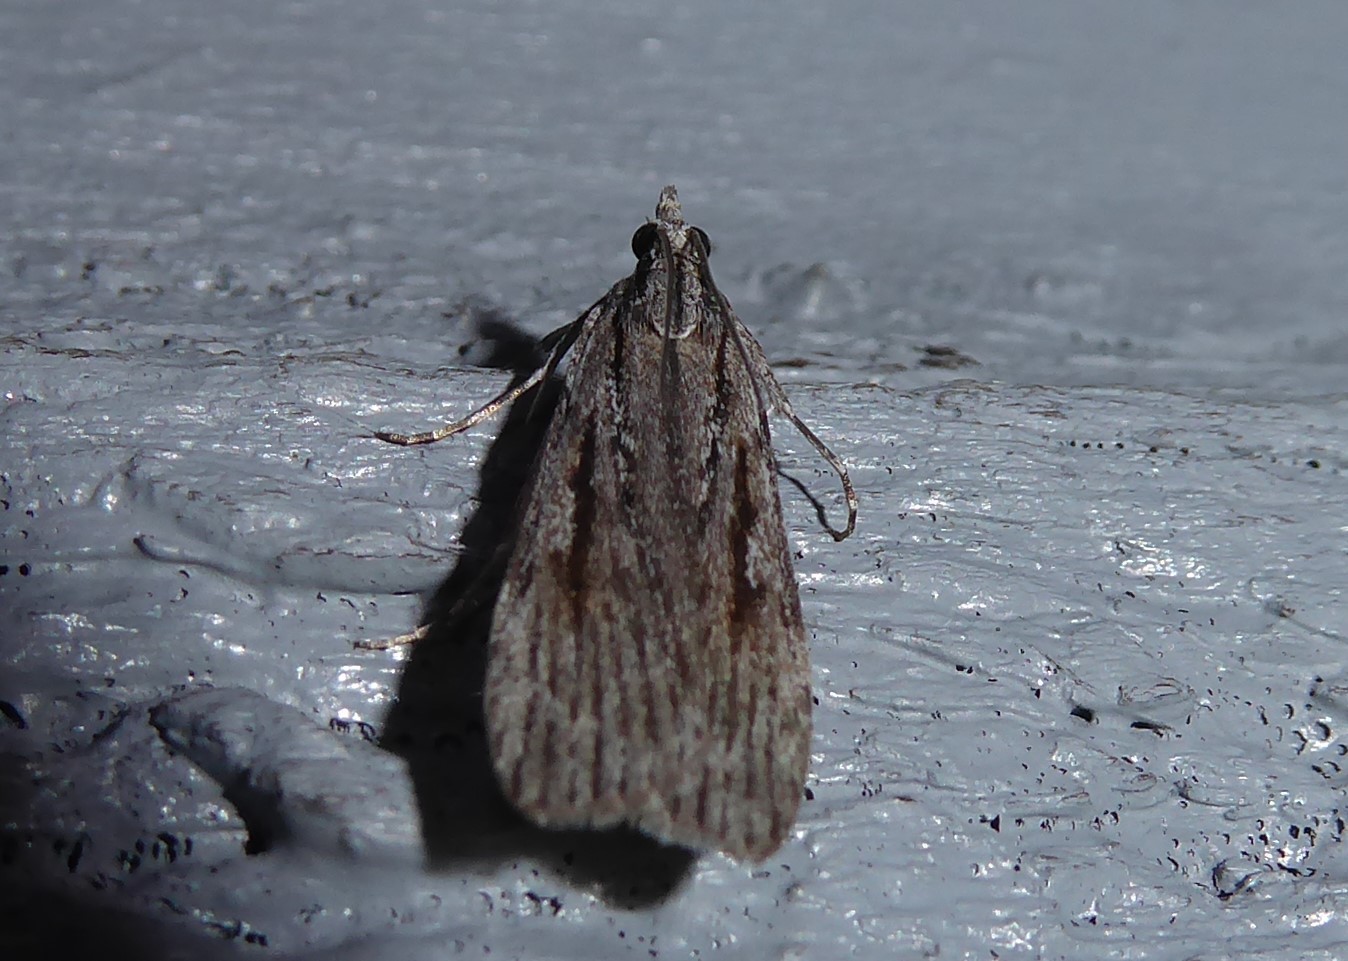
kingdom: Animalia
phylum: Arthropoda
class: Insecta
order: Lepidoptera
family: Crambidae
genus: Scoparia
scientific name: Scoparia indistinctalis
